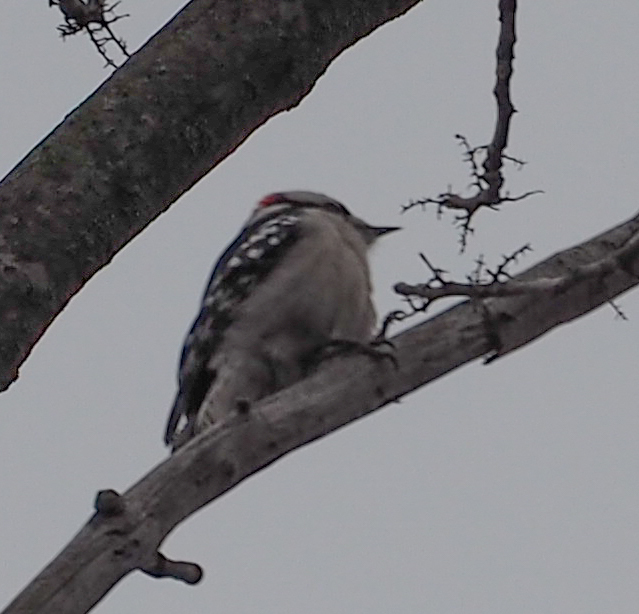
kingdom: Animalia
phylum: Chordata
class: Aves
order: Piciformes
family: Picidae
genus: Dryobates
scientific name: Dryobates pubescens
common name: Downy woodpecker
